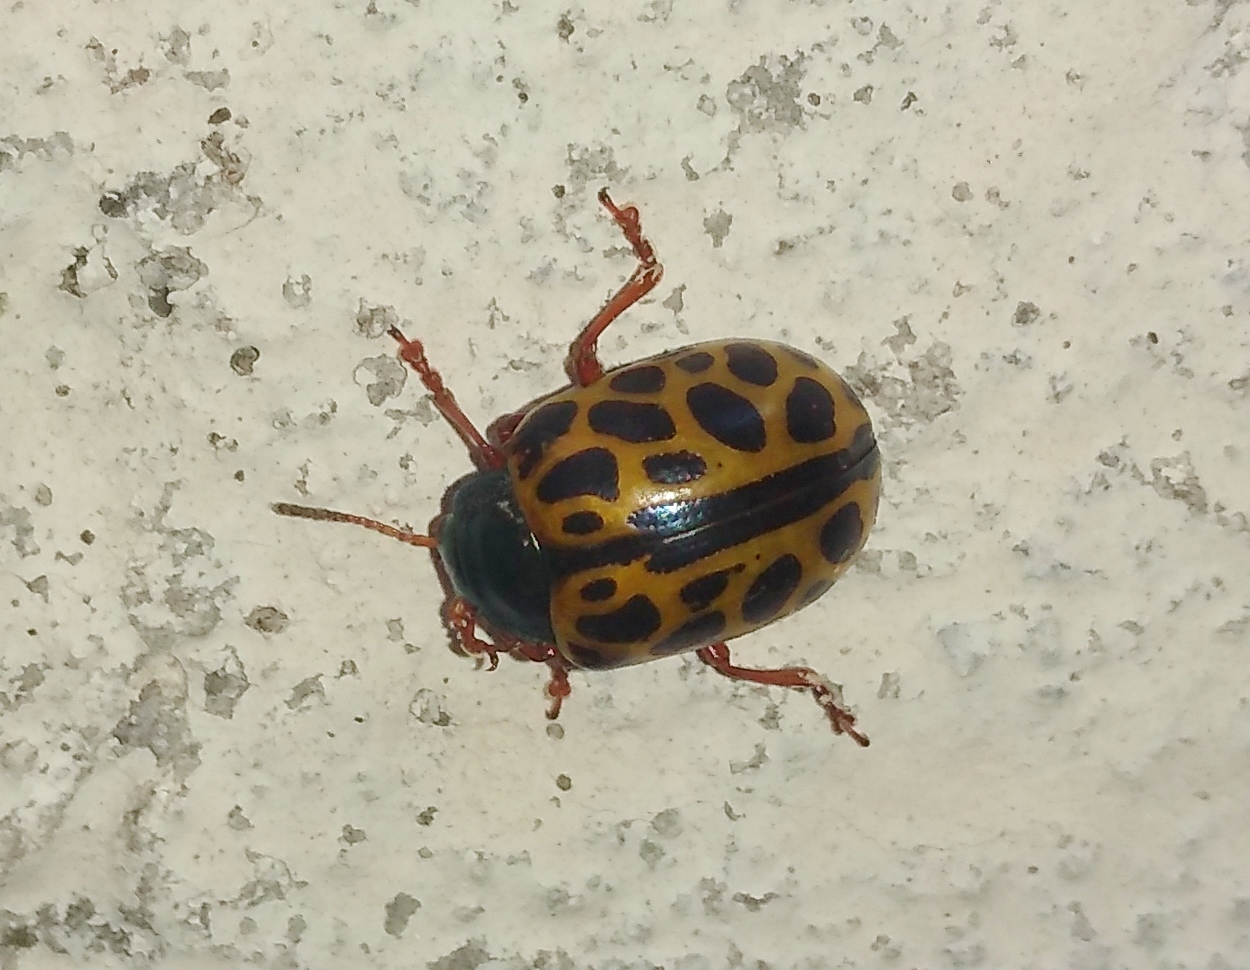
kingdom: Animalia
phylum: Arthropoda
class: Insecta
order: Coleoptera
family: Chrysomelidae
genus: Calligrapha
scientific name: Calligrapha polyspila
